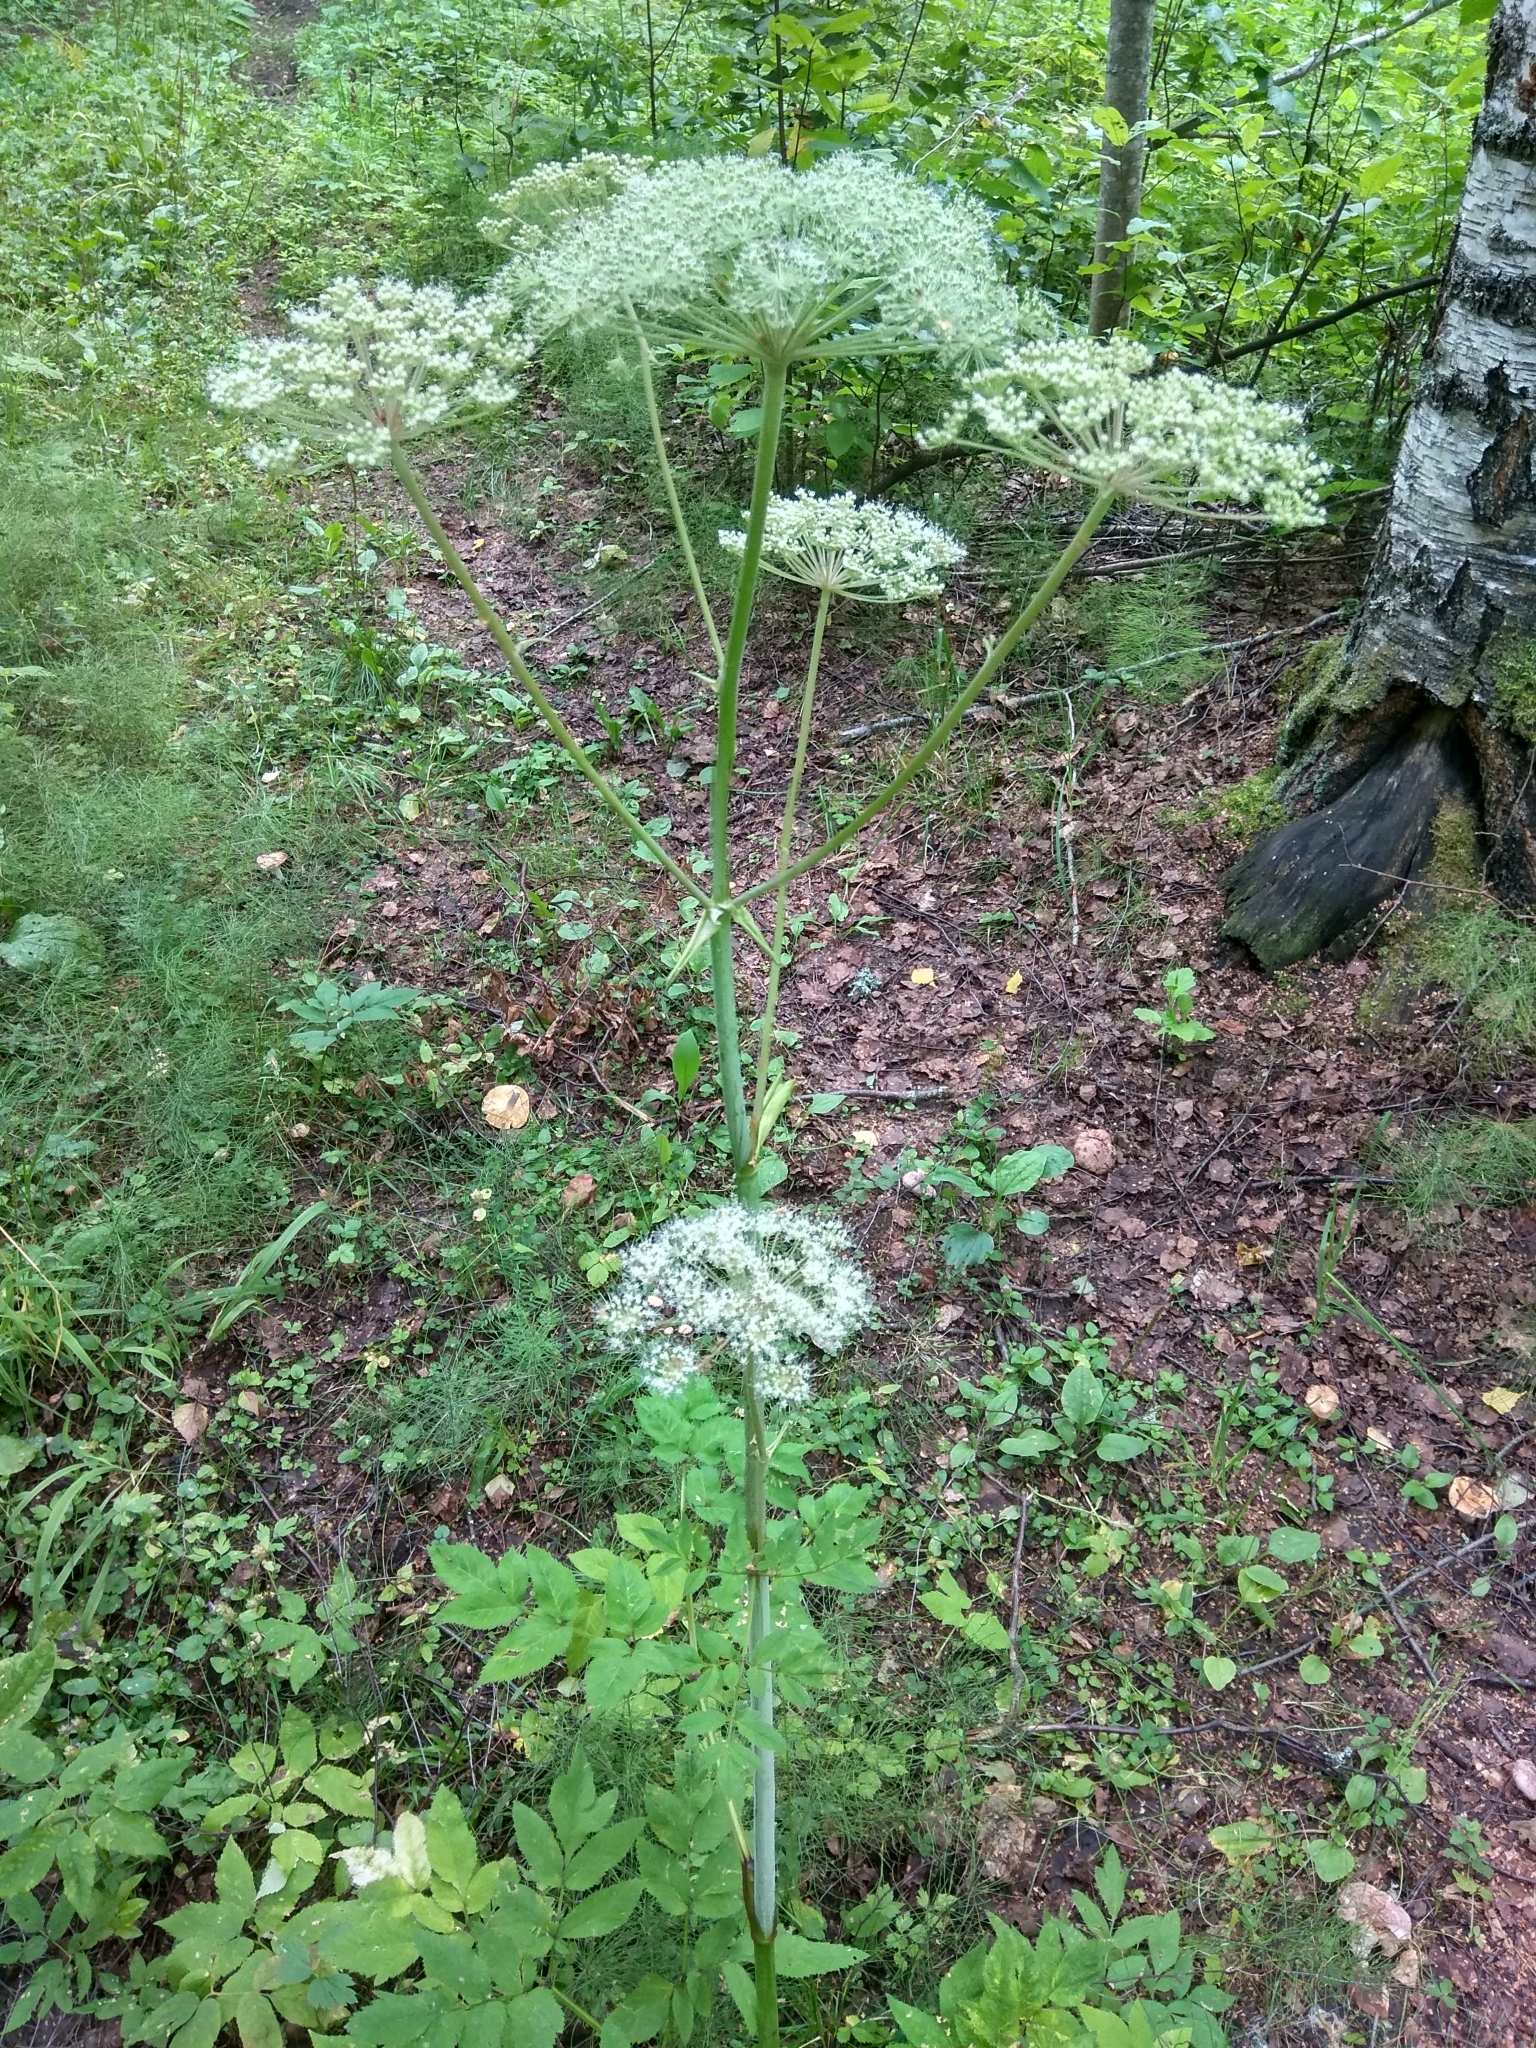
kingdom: Plantae
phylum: Tracheophyta
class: Magnoliopsida
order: Apiales
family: Apiaceae
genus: Angelica
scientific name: Angelica sylvestris
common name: Wild angelica
